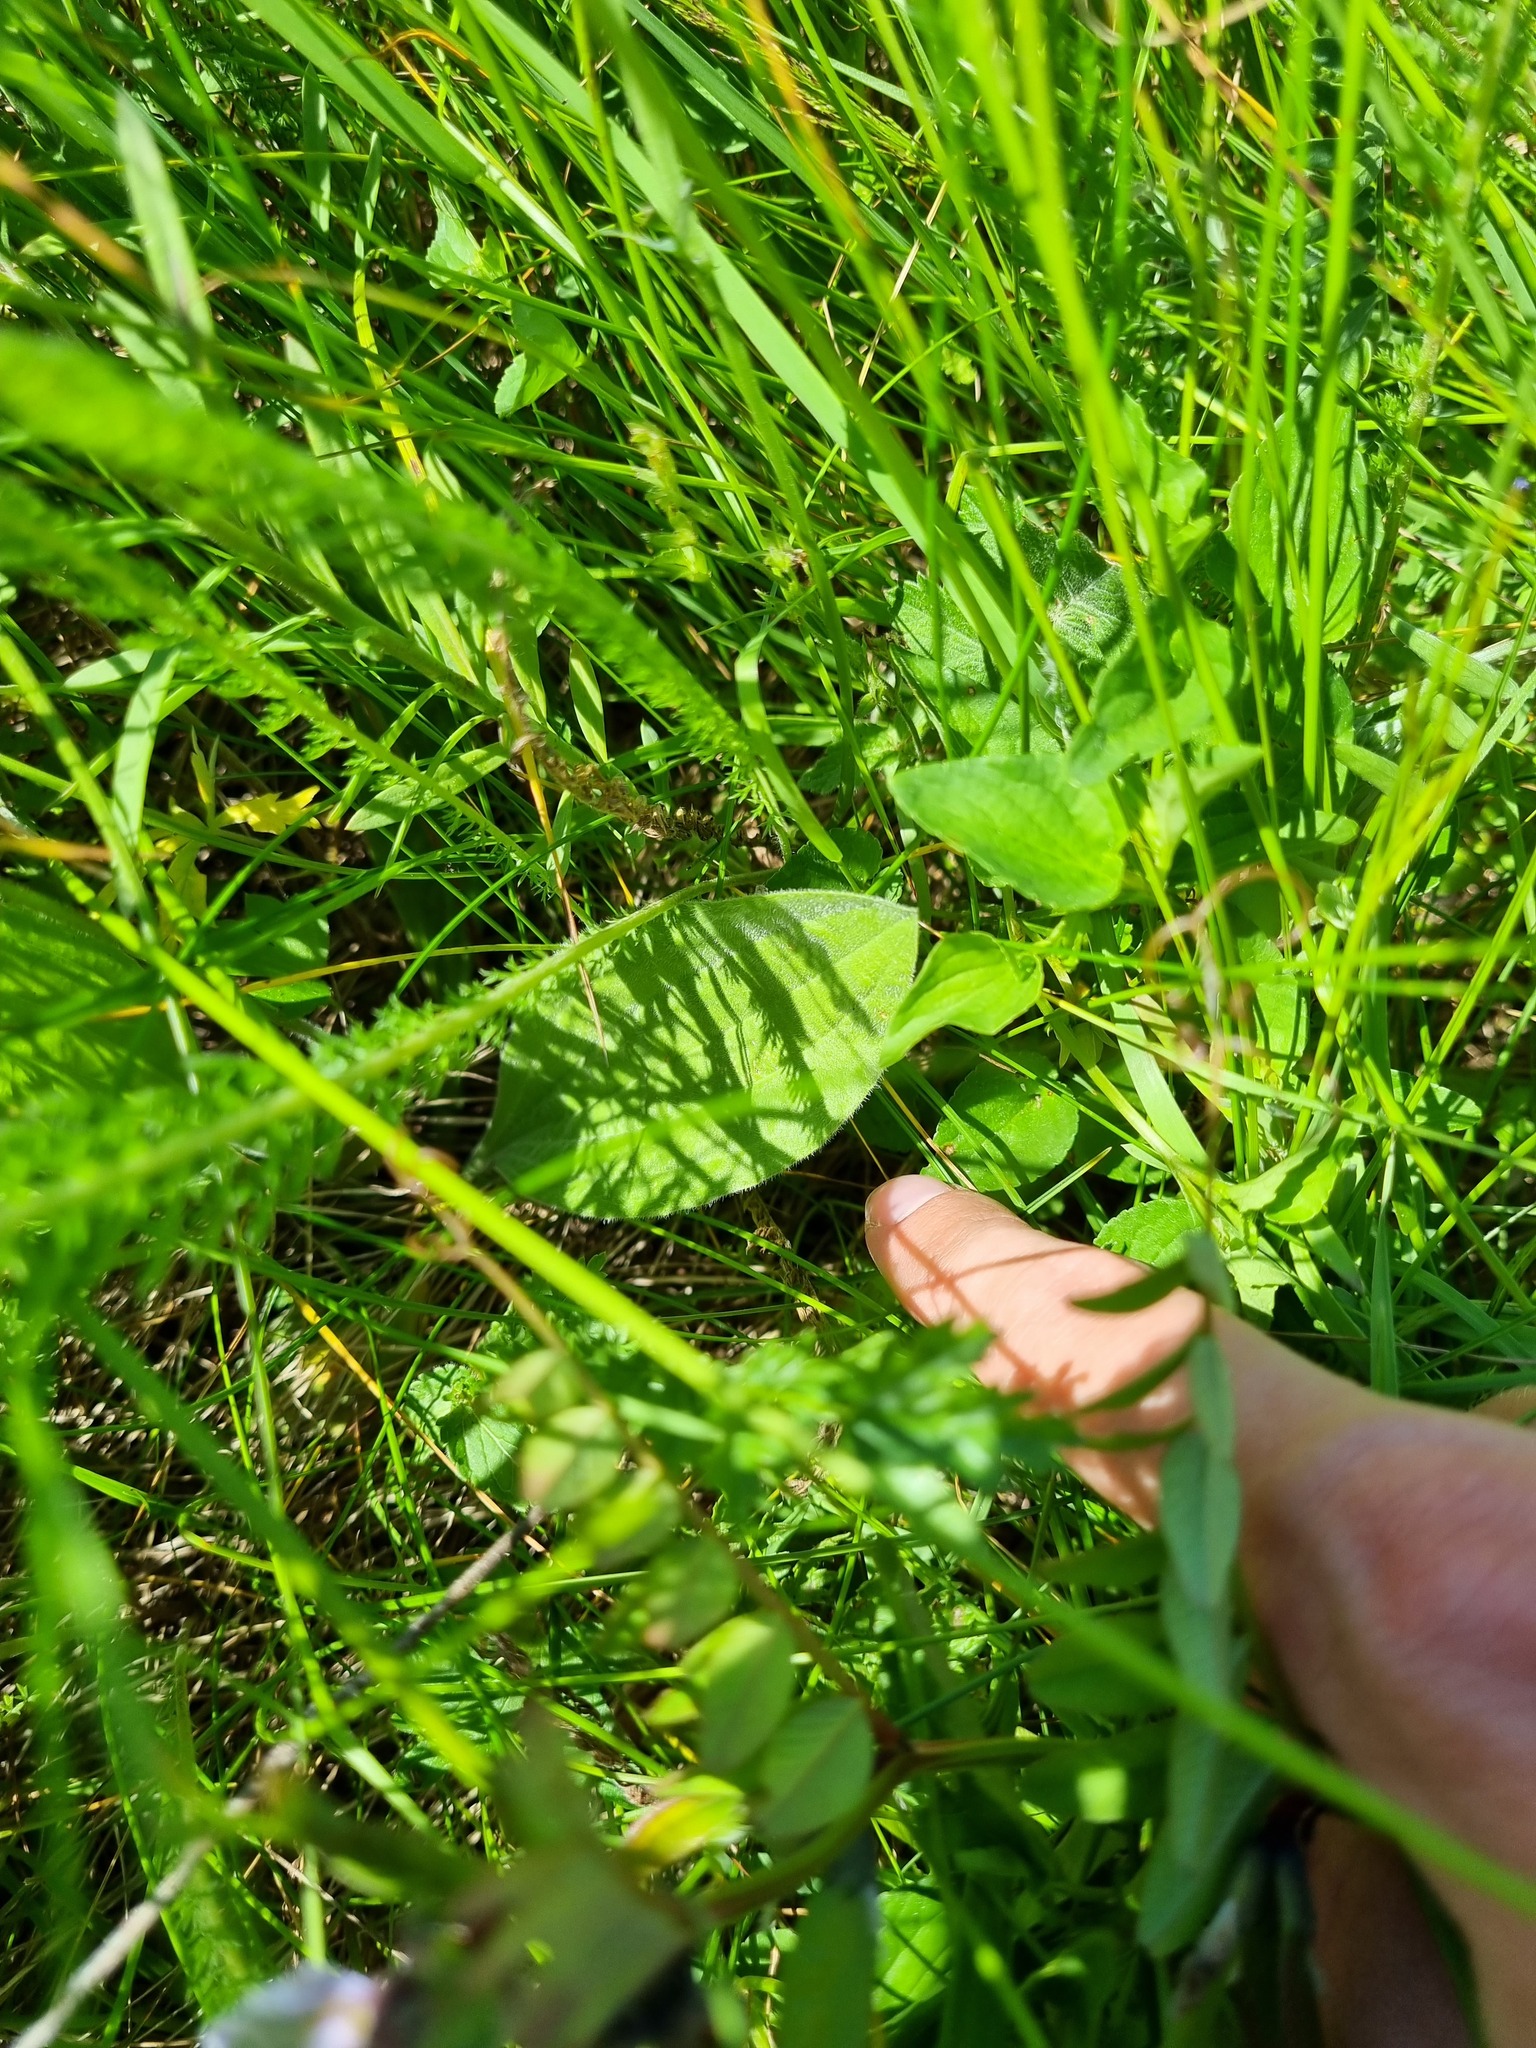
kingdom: Plantae
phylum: Tracheophyta
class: Magnoliopsida
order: Lamiales
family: Plantaginaceae
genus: Plantago
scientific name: Plantago major
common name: Common plantain
